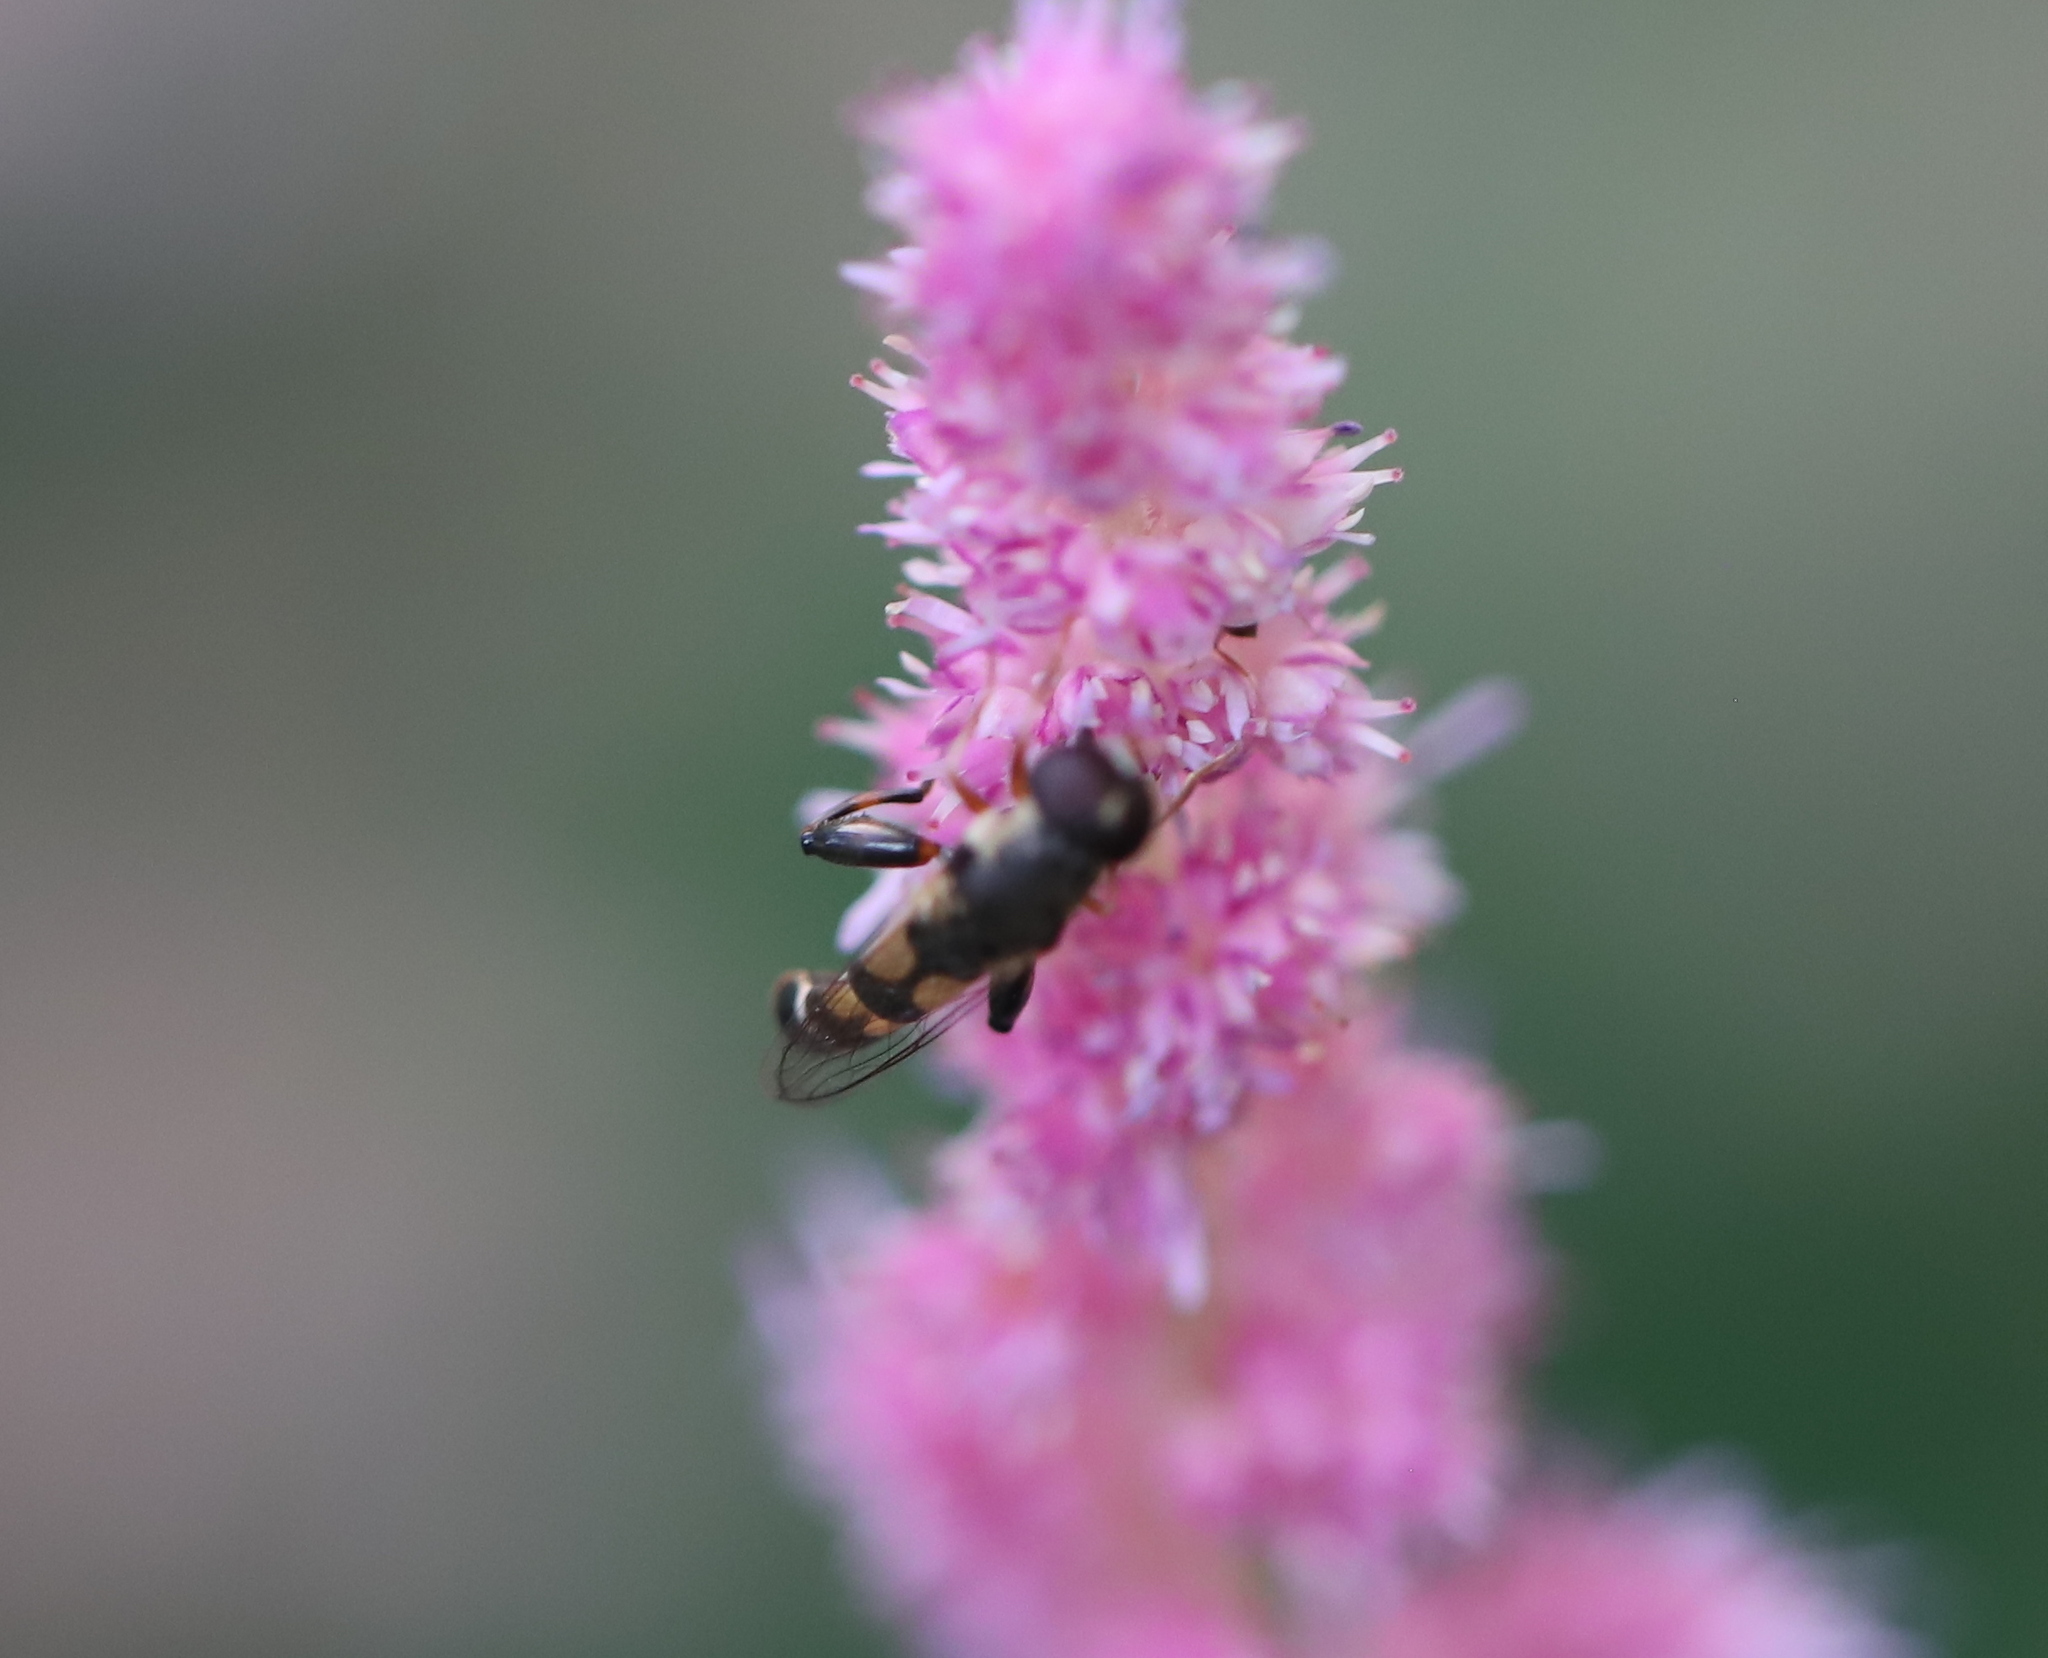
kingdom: Animalia
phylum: Arthropoda
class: Insecta
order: Diptera
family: Syrphidae
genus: Syritta
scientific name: Syritta pipiens
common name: Hover fly
